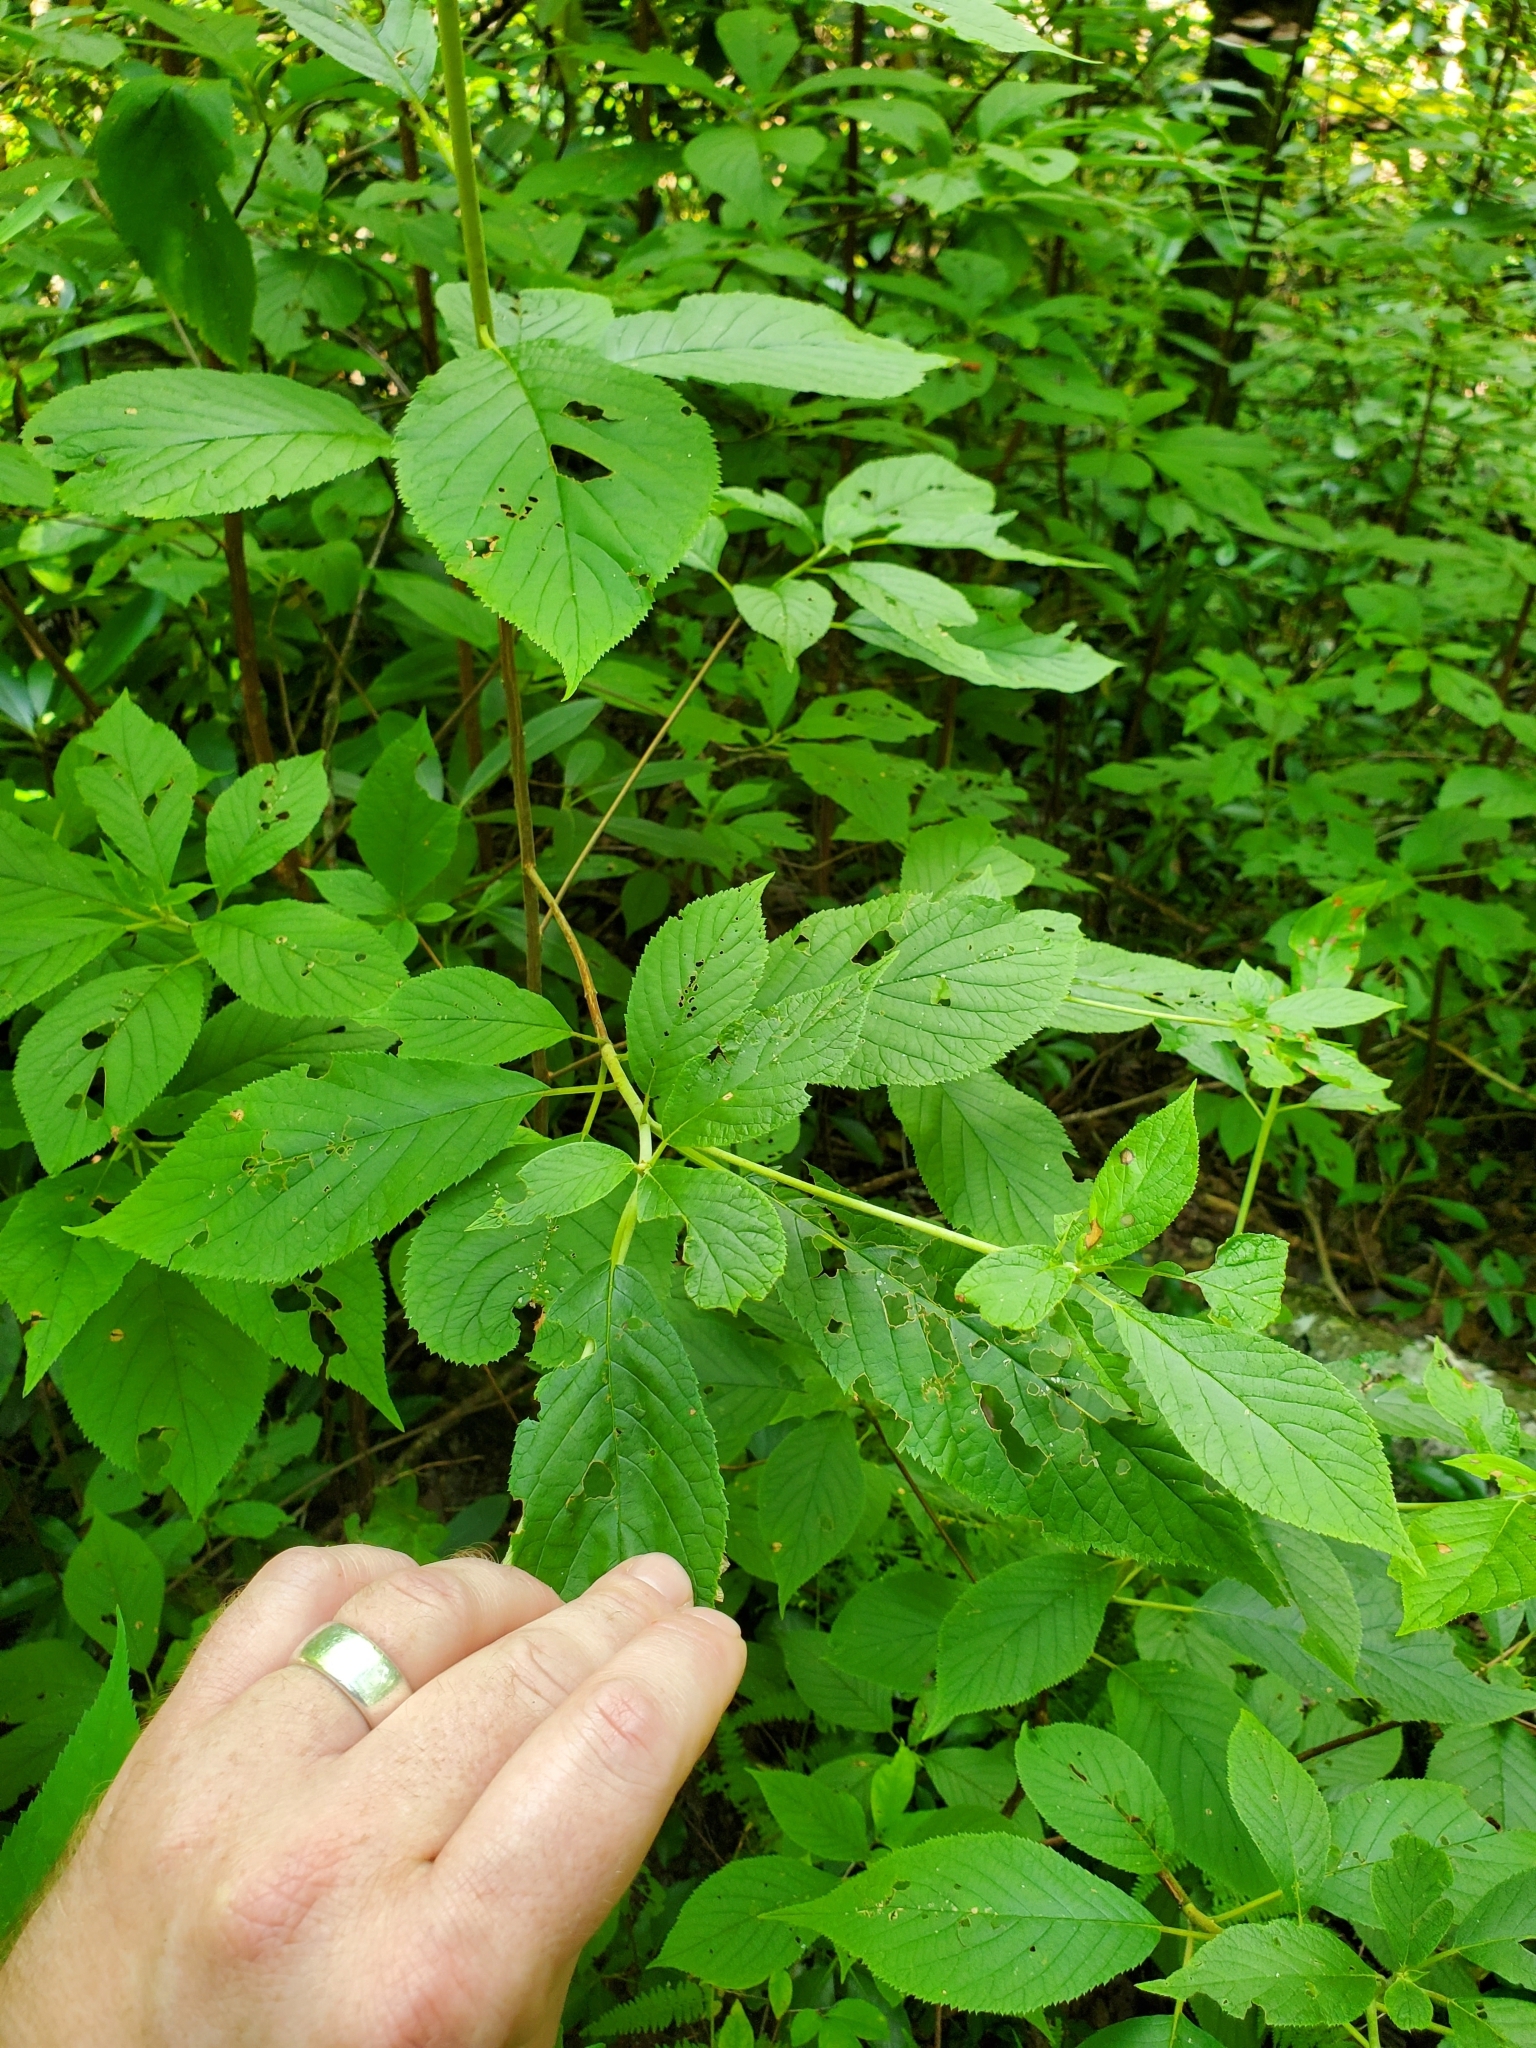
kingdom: Plantae
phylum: Tracheophyta
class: Magnoliopsida
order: Ericales
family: Clethraceae
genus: Clethra
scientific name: Clethra acuminata
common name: Mountain sweet pepperbush
